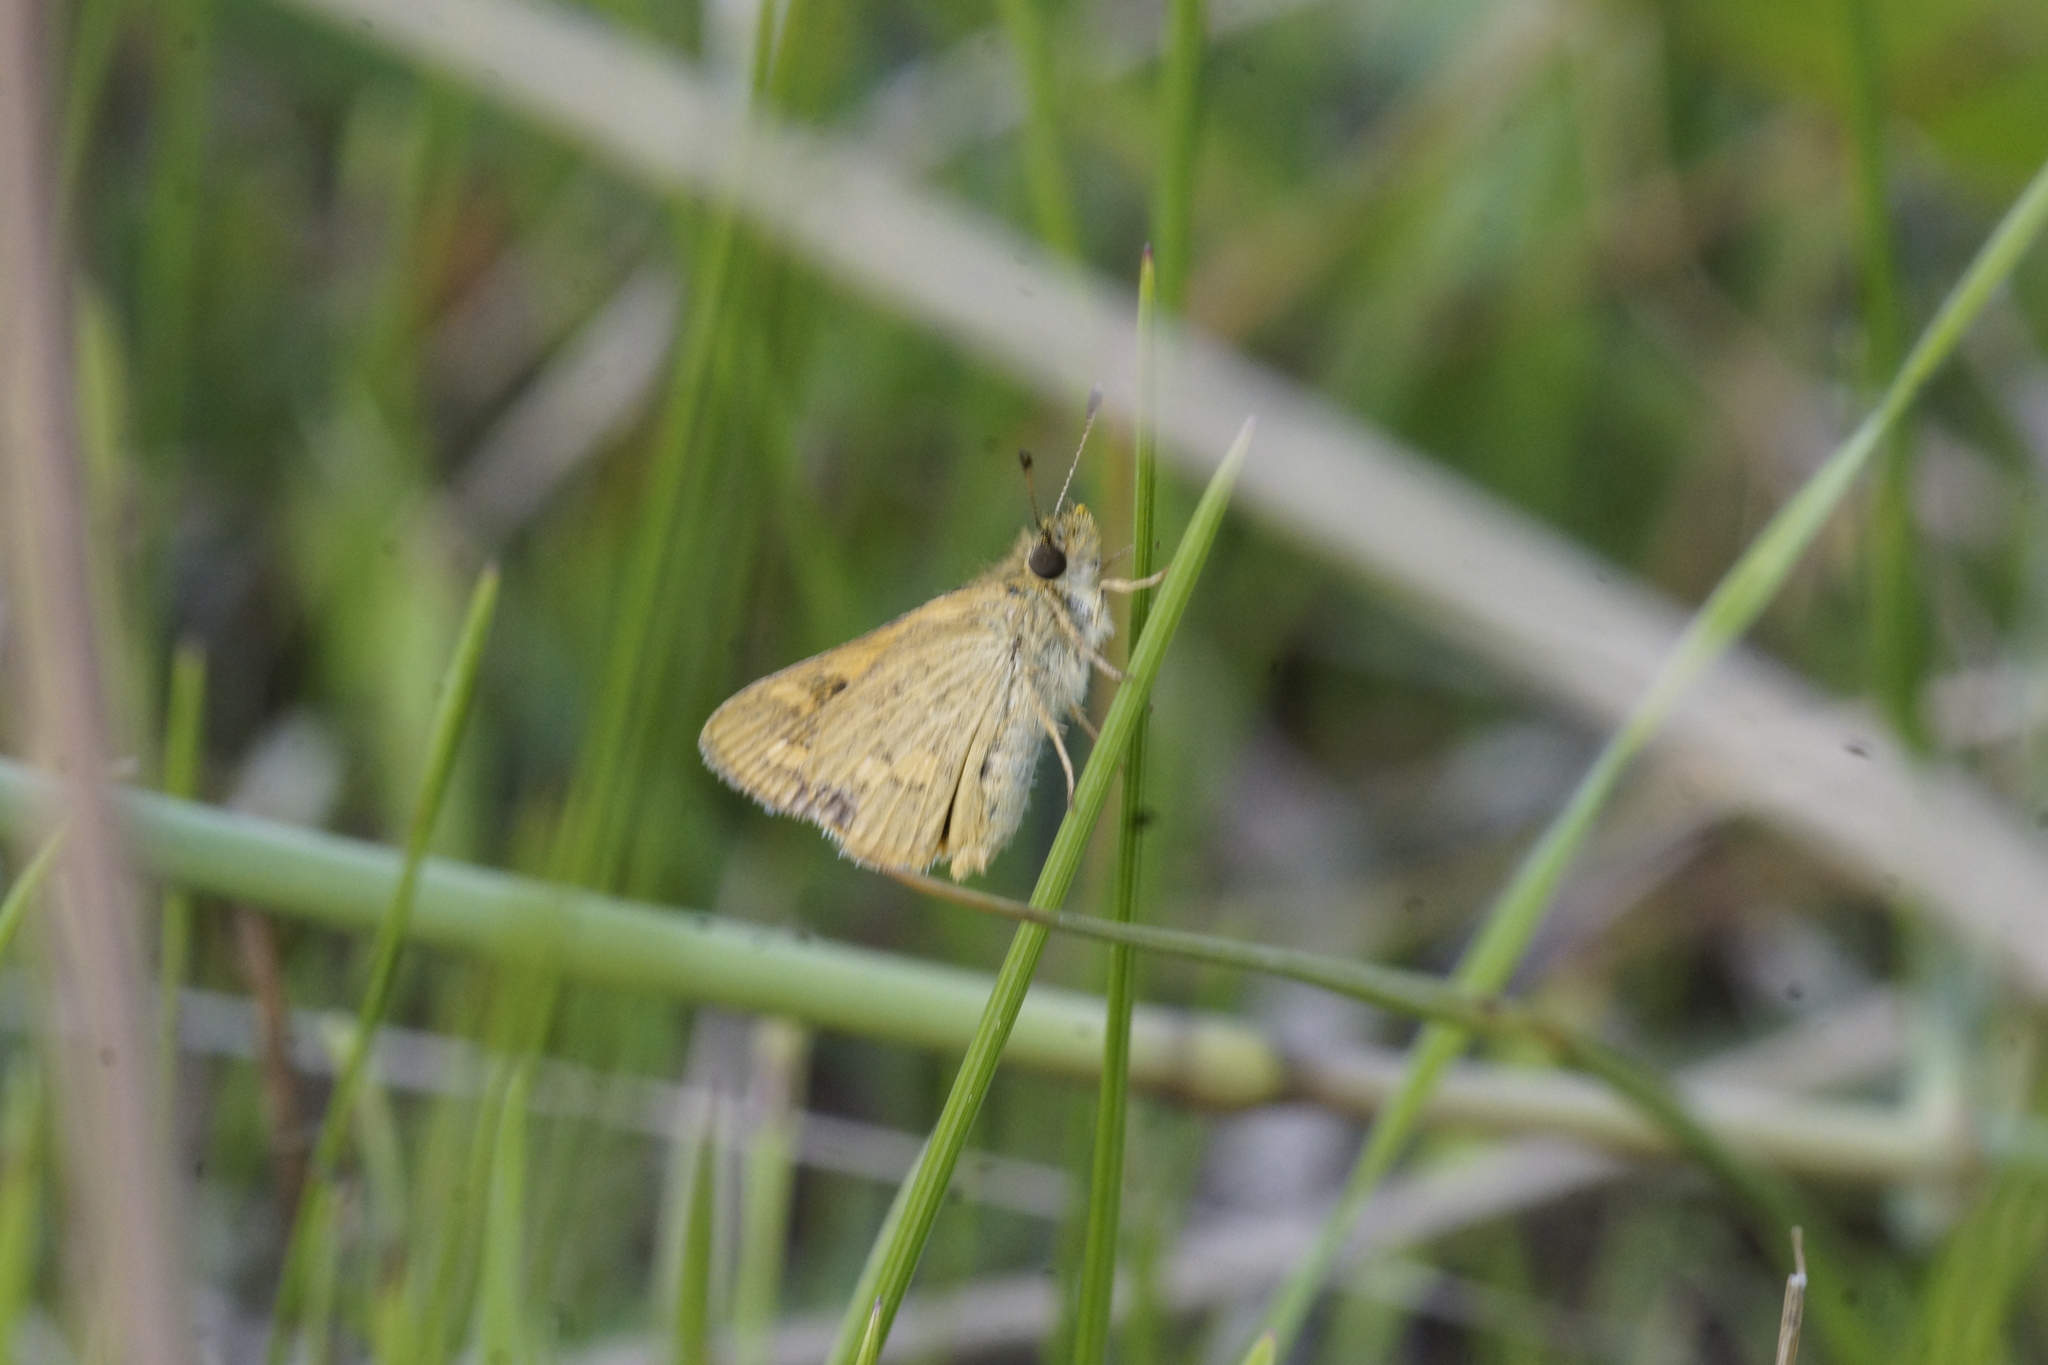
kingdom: Animalia
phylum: Arthropoda
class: Insecta
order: Lepidoptera
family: Hesperiidae
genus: Ocybadistes
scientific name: Ocybadistes walkeri
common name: Yellow-banded dart
